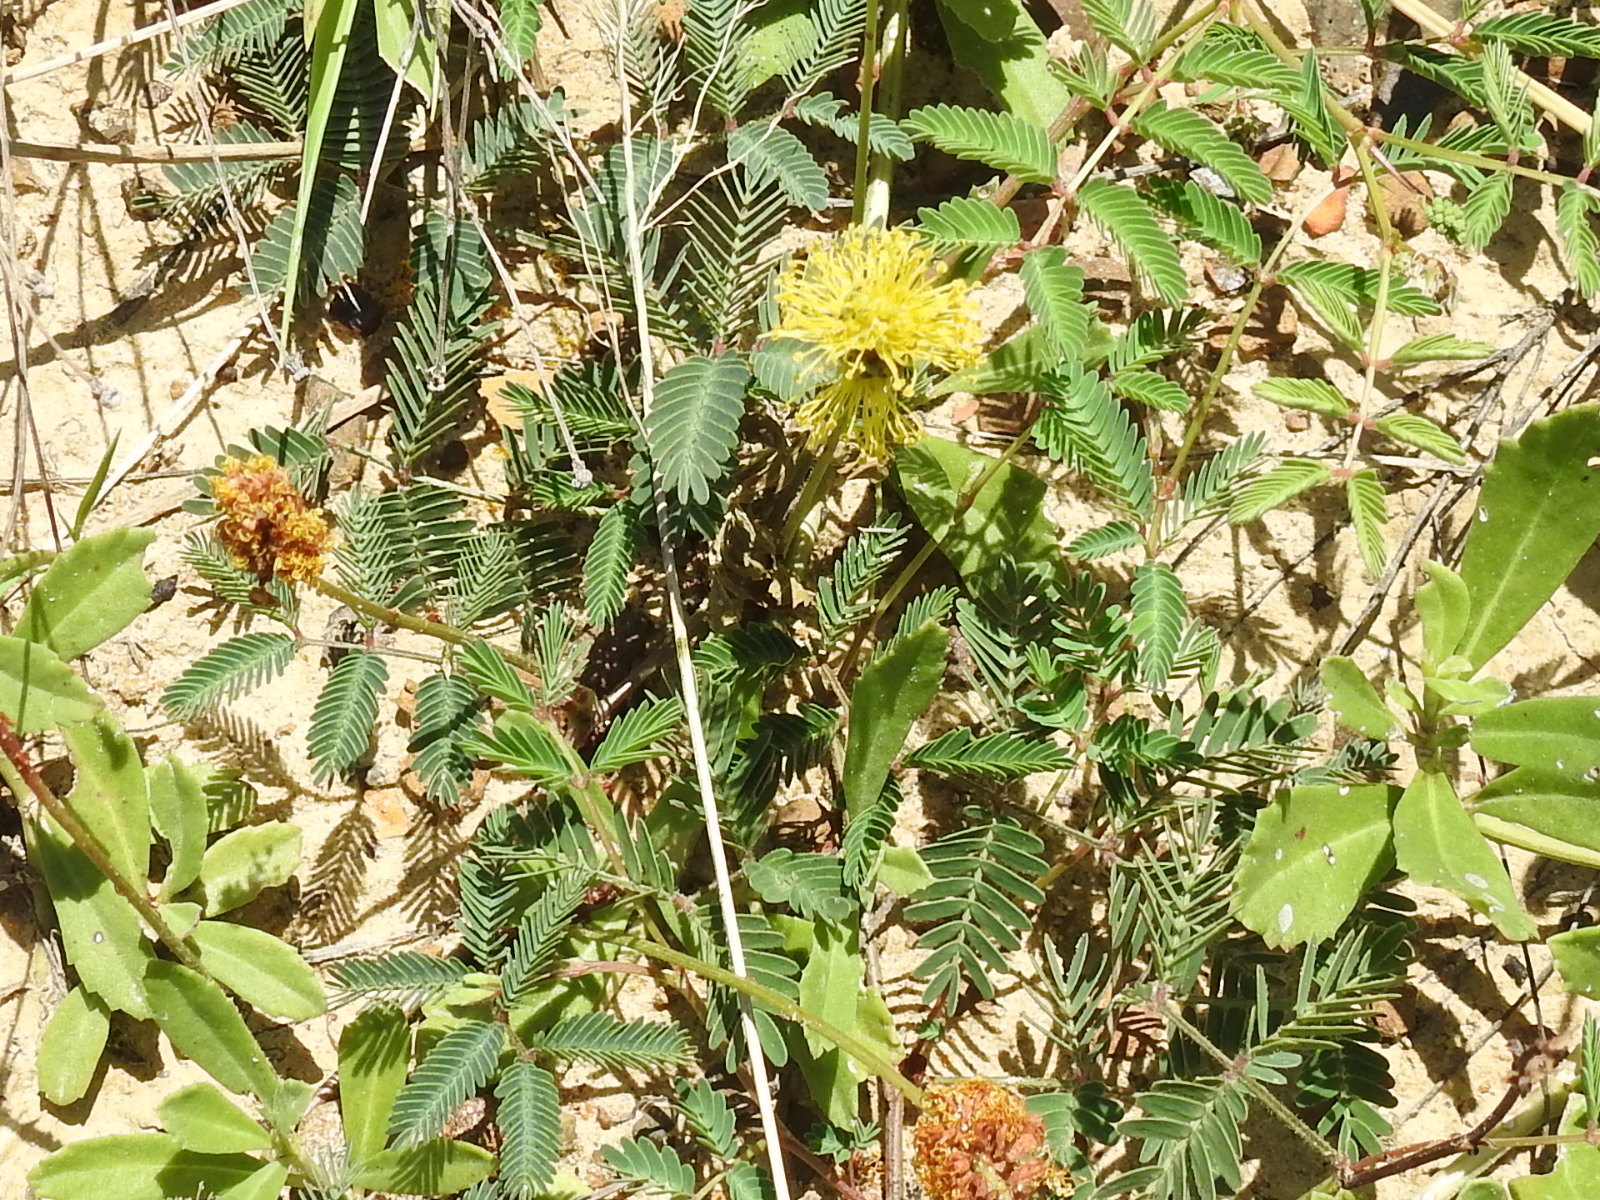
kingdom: Plantae
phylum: Tracheophyta
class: Magnoliopsida
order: Fabales
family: Fabaceae
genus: Neptunia
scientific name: Neptunia lutea
